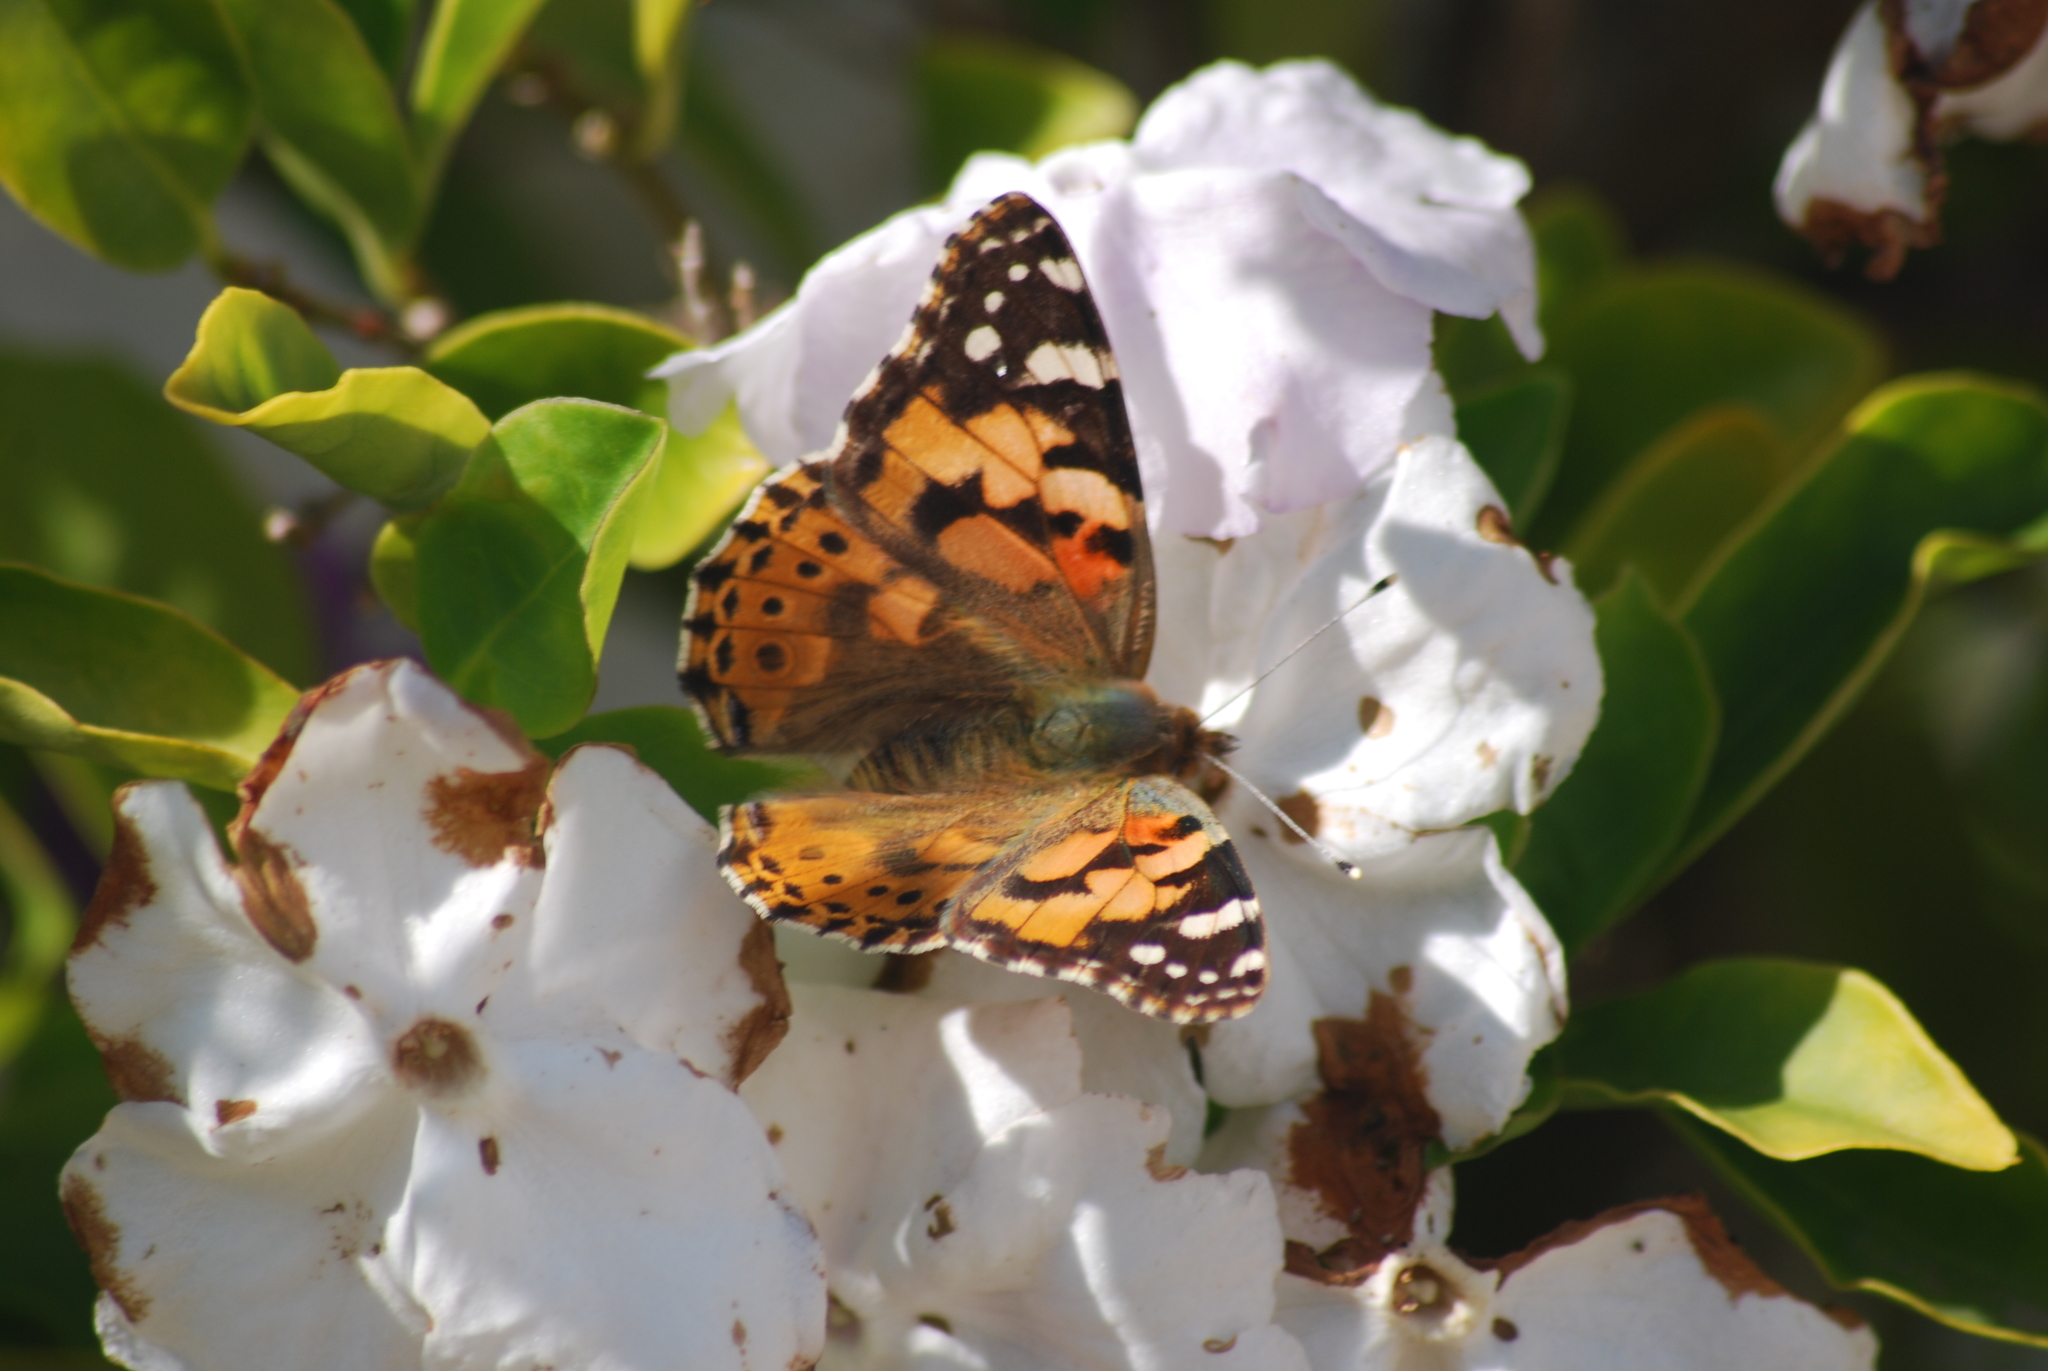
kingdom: Animalia
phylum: Arthropoda
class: Insecta
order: Lepidoptera
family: Nymphalidae
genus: Vanessa
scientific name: Vanessa cardui
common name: Painted lady
